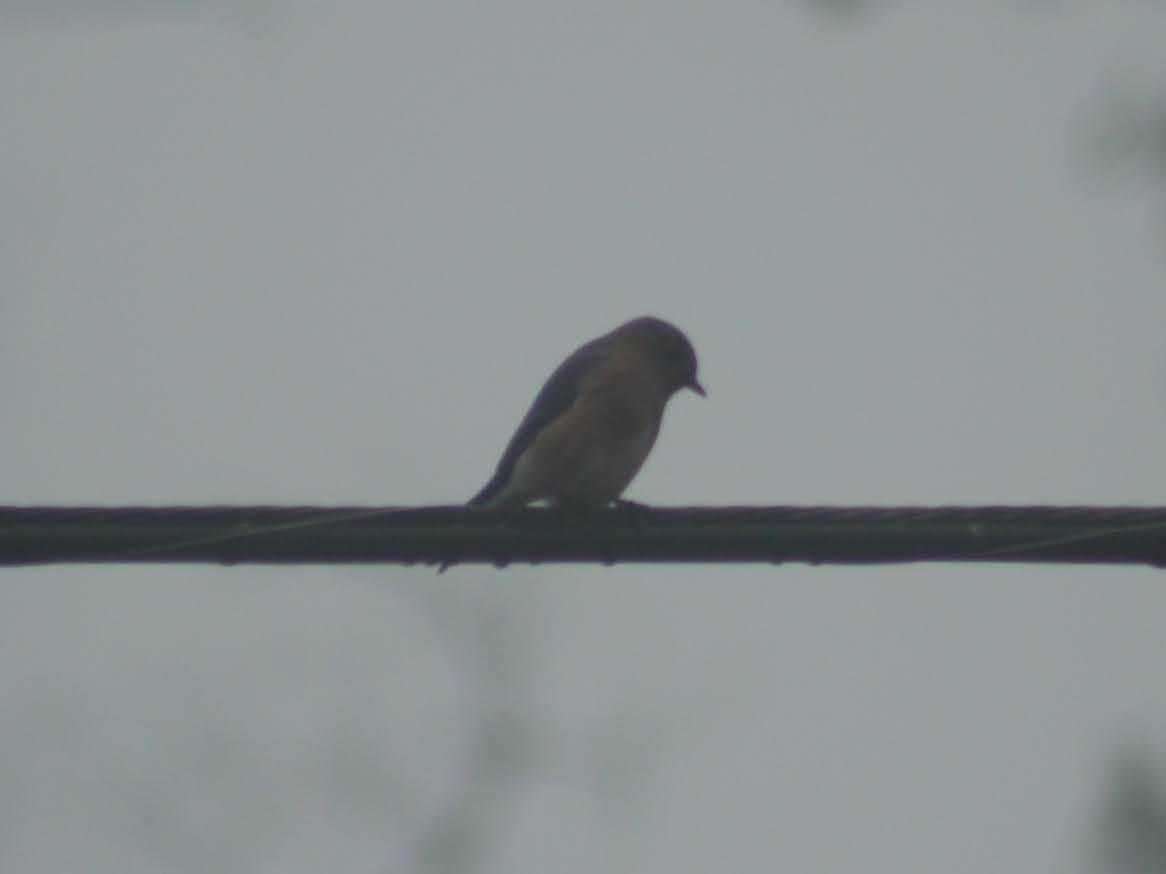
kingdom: Animalia
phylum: Chordata
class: Aves
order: Passeriformes
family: Turdidae
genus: Sialia
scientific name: Sialia sialis
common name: Eastern bluebird
